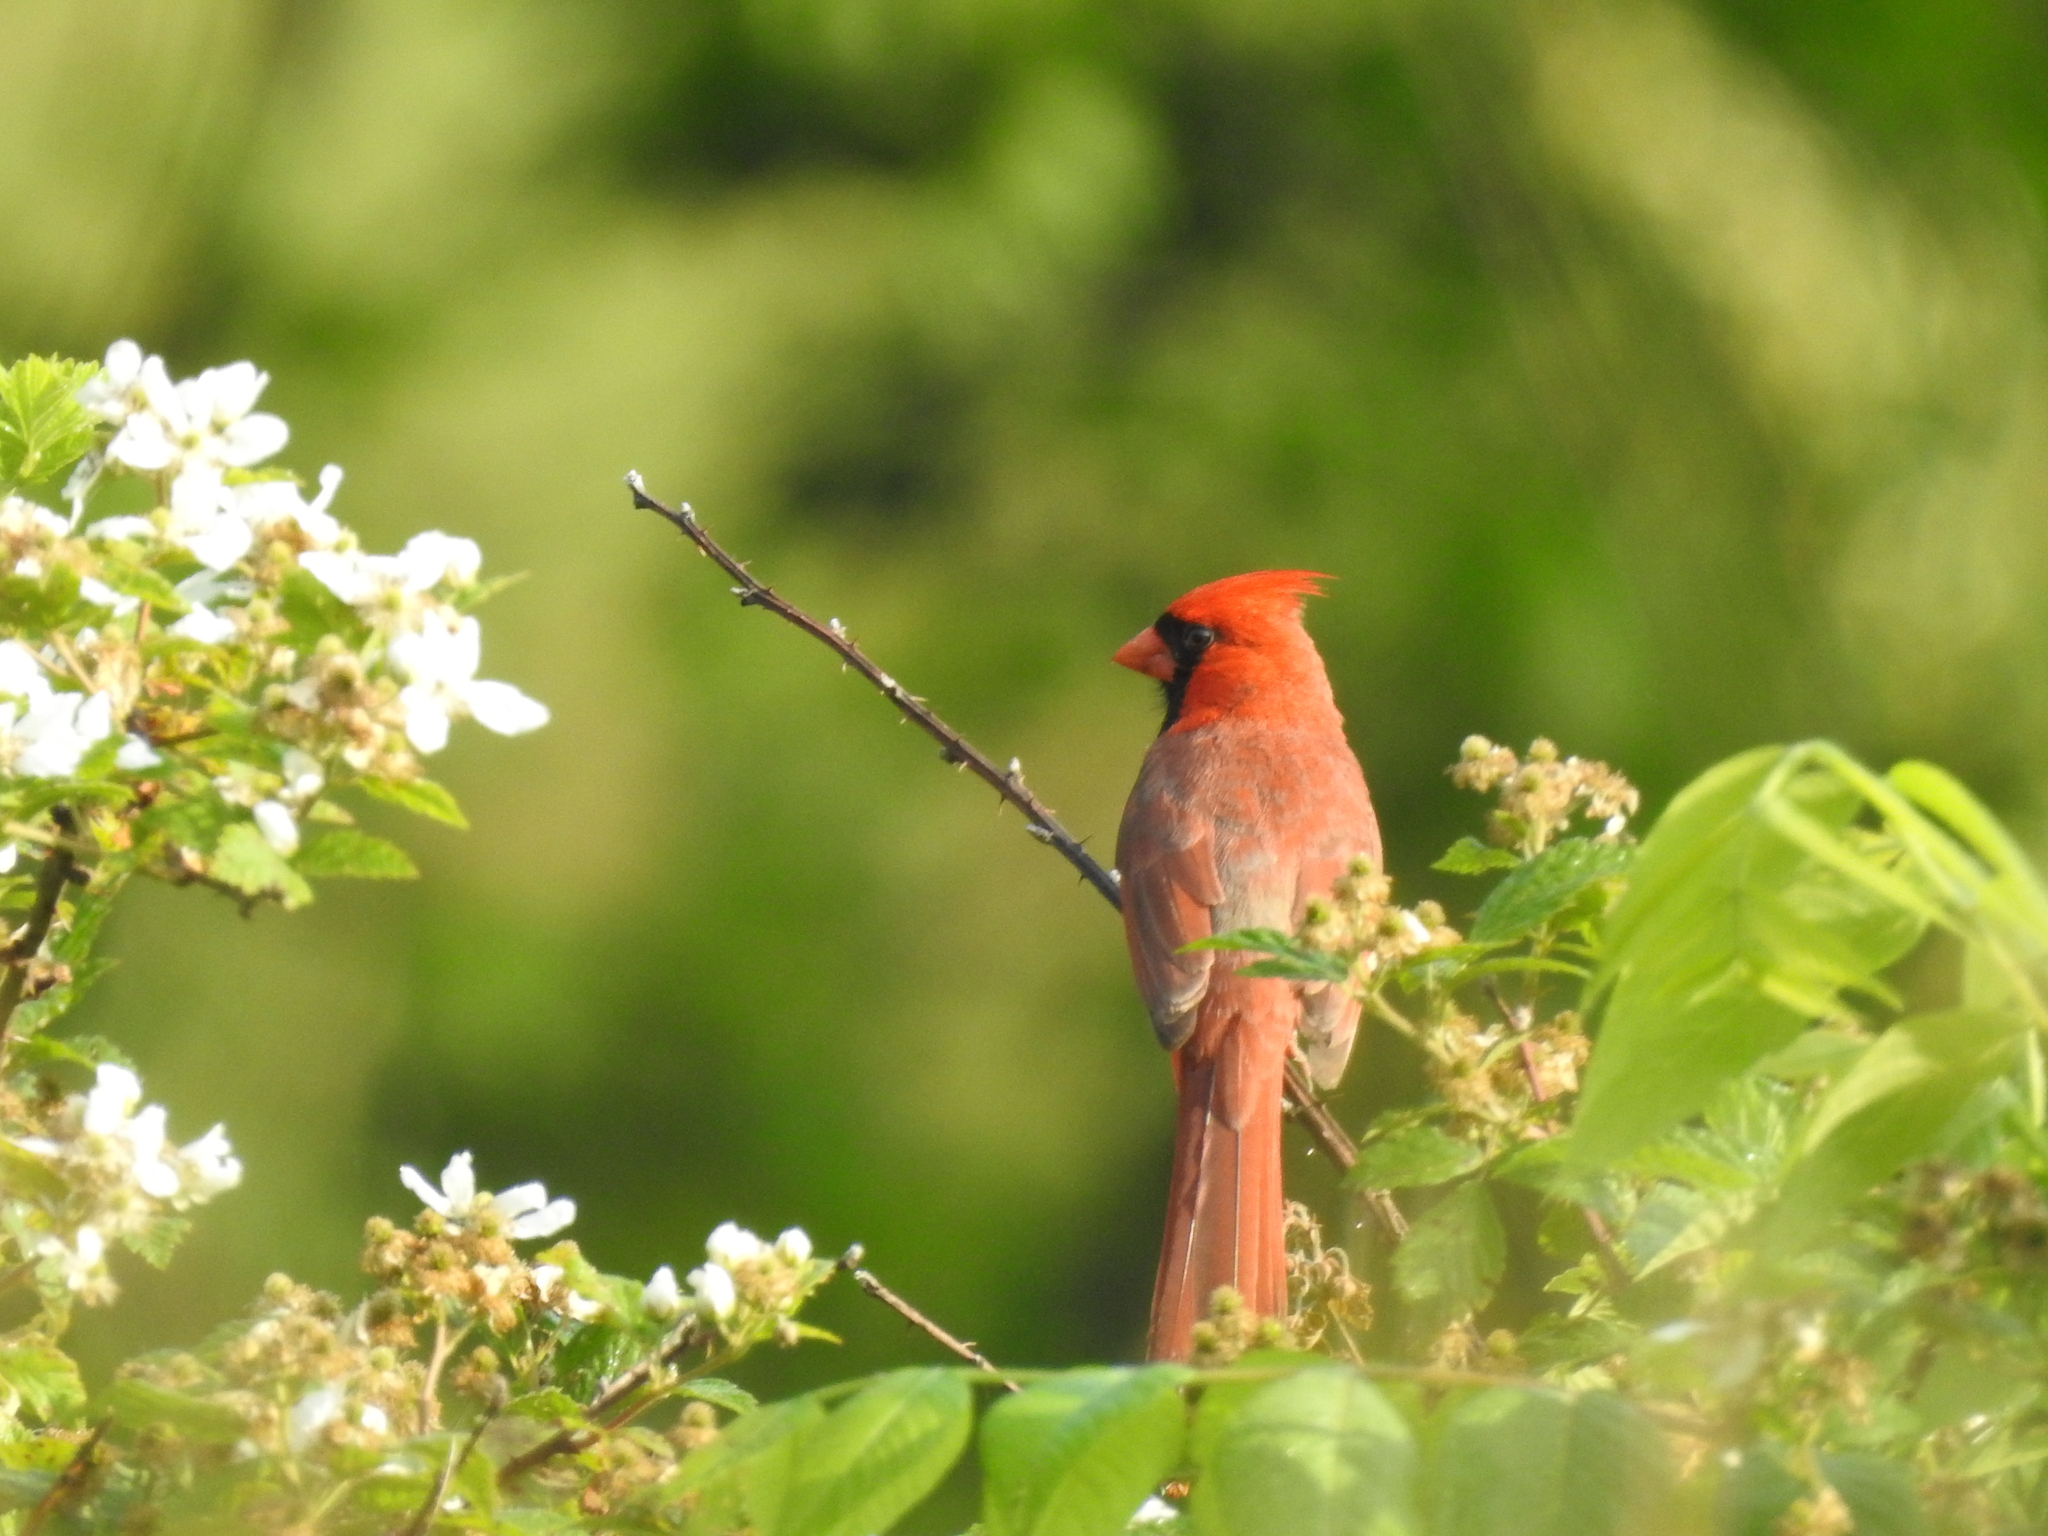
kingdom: Animalia
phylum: Chordata
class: Aves
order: Passeriformes
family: Cardinalidae
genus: Cardinalis
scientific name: Cardinalis cardinalis
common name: Northern cardinal
